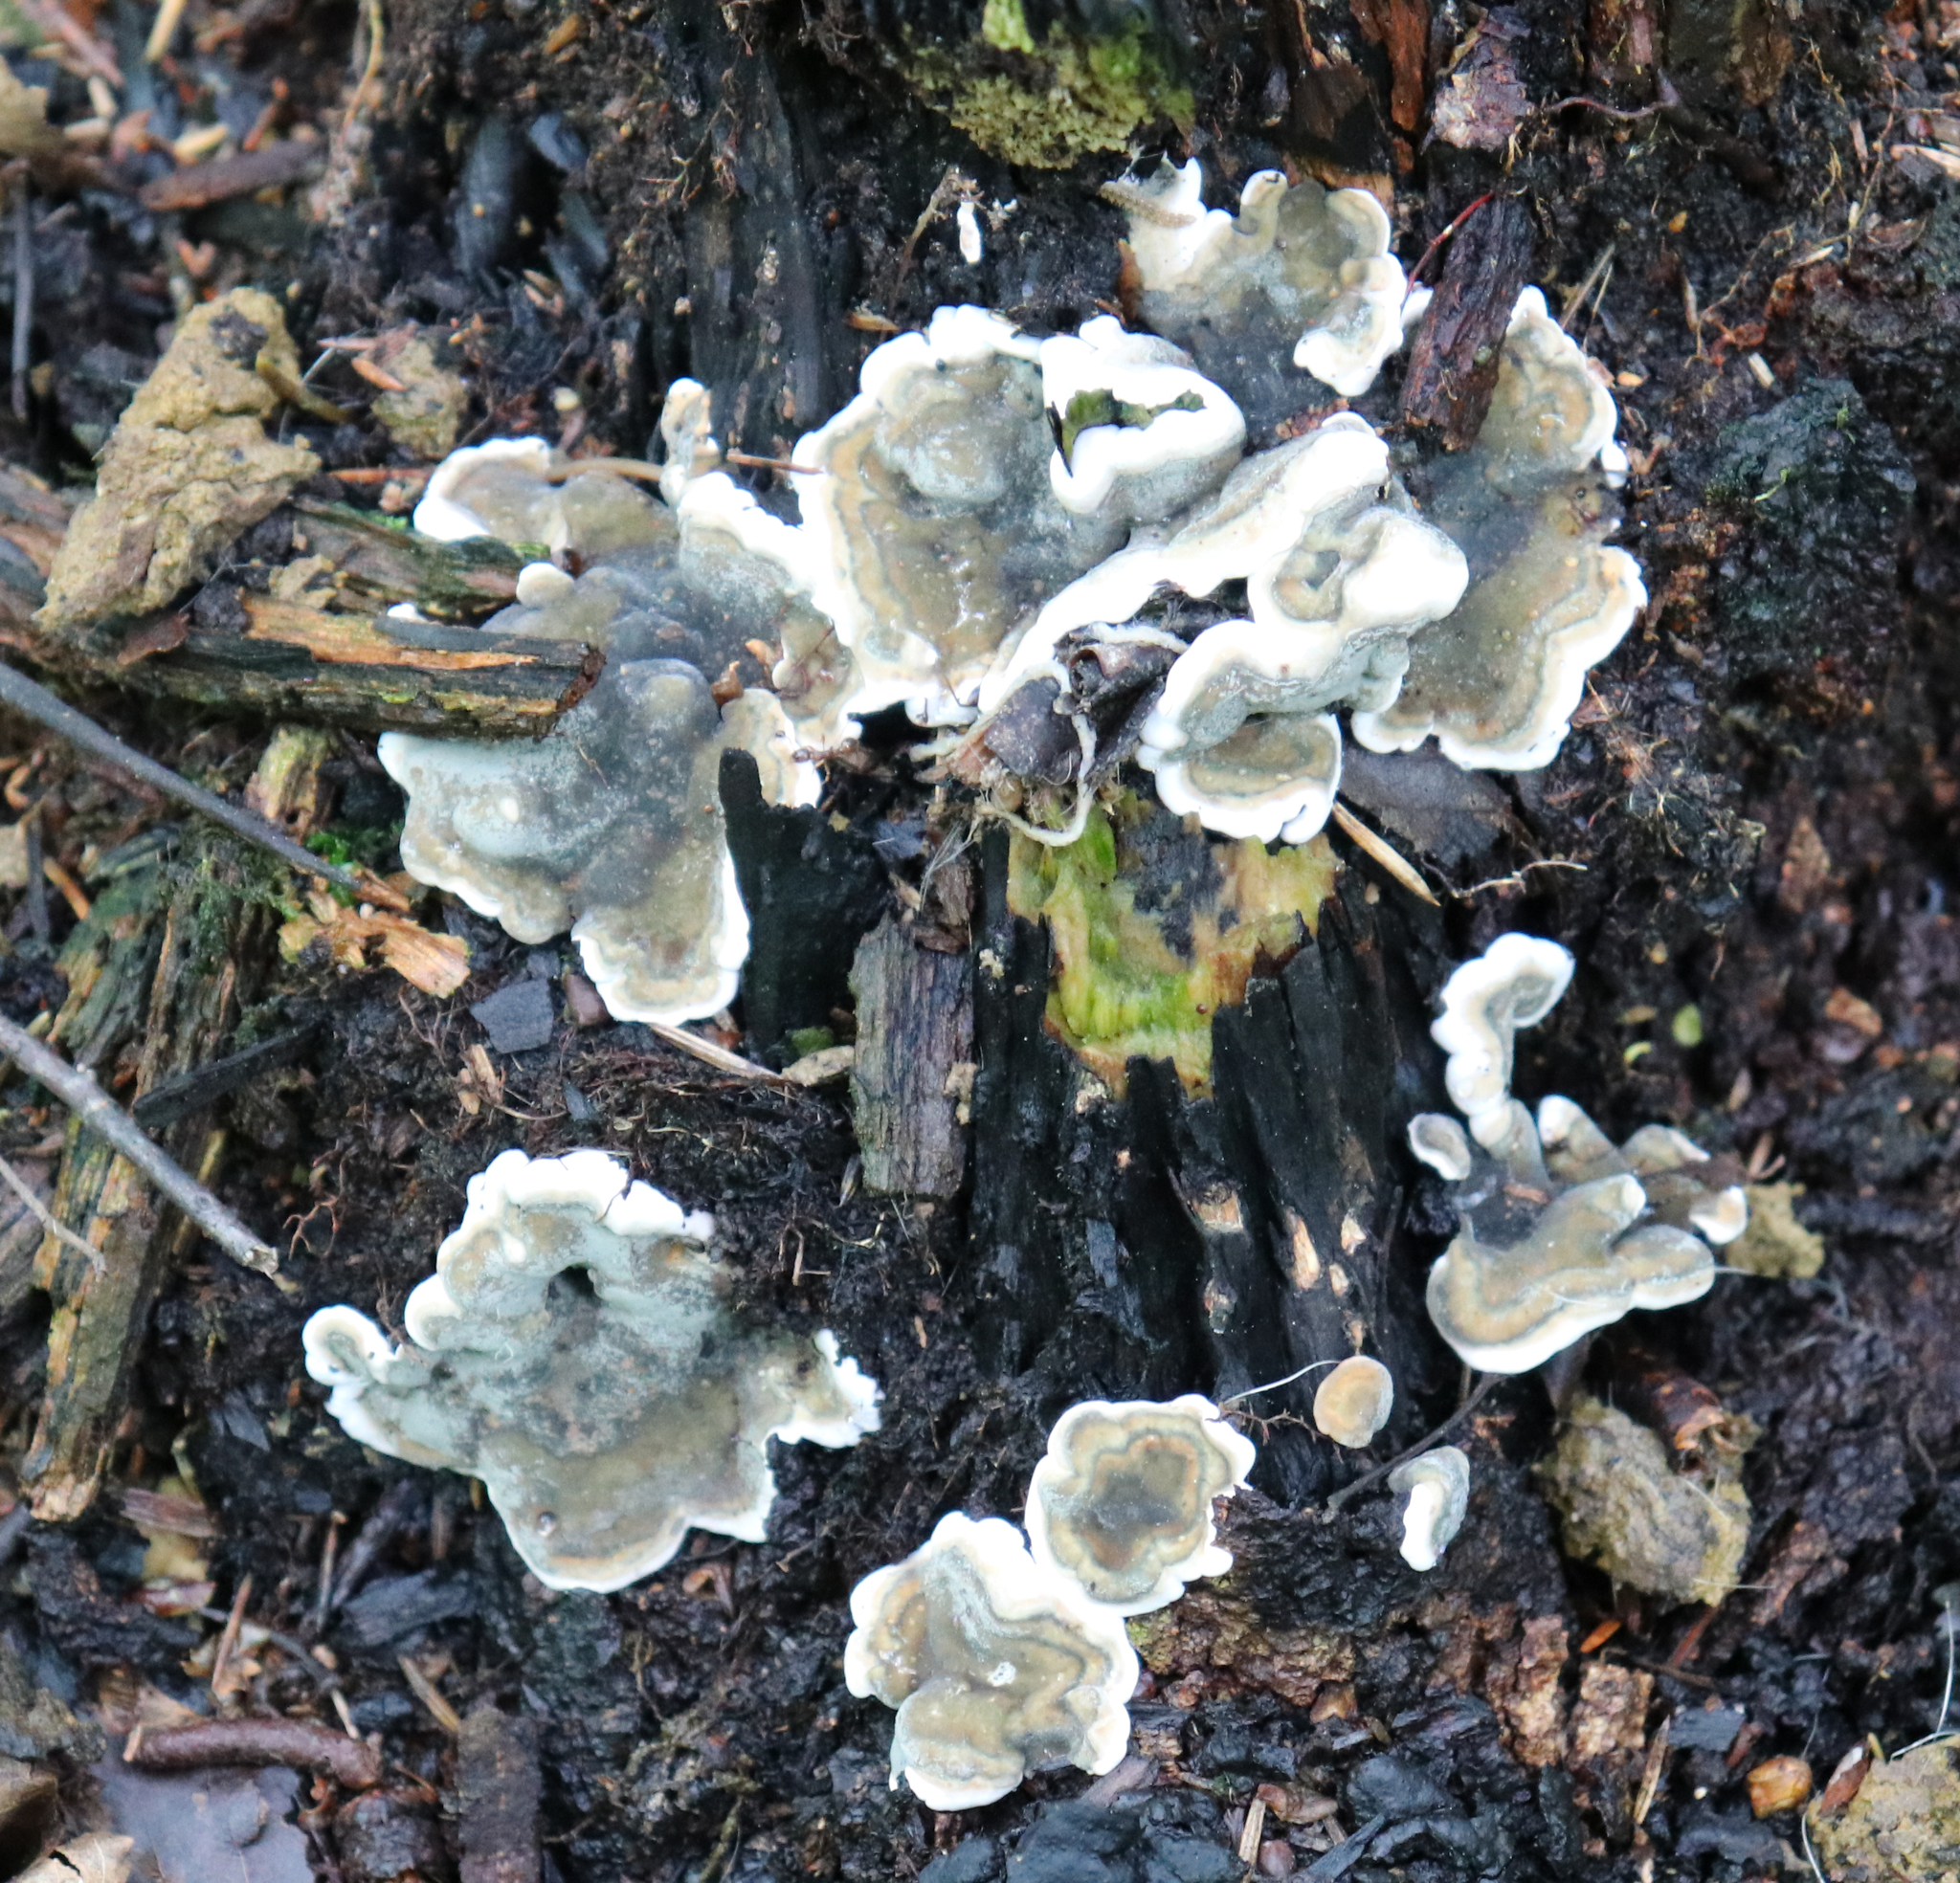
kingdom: Fungi
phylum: Ascomycota
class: Sordariomycetes
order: Xylariales
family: Xylariaceae
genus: Kretzschmaria
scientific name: Kretzschmaria deusta
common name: Brittle cinder
